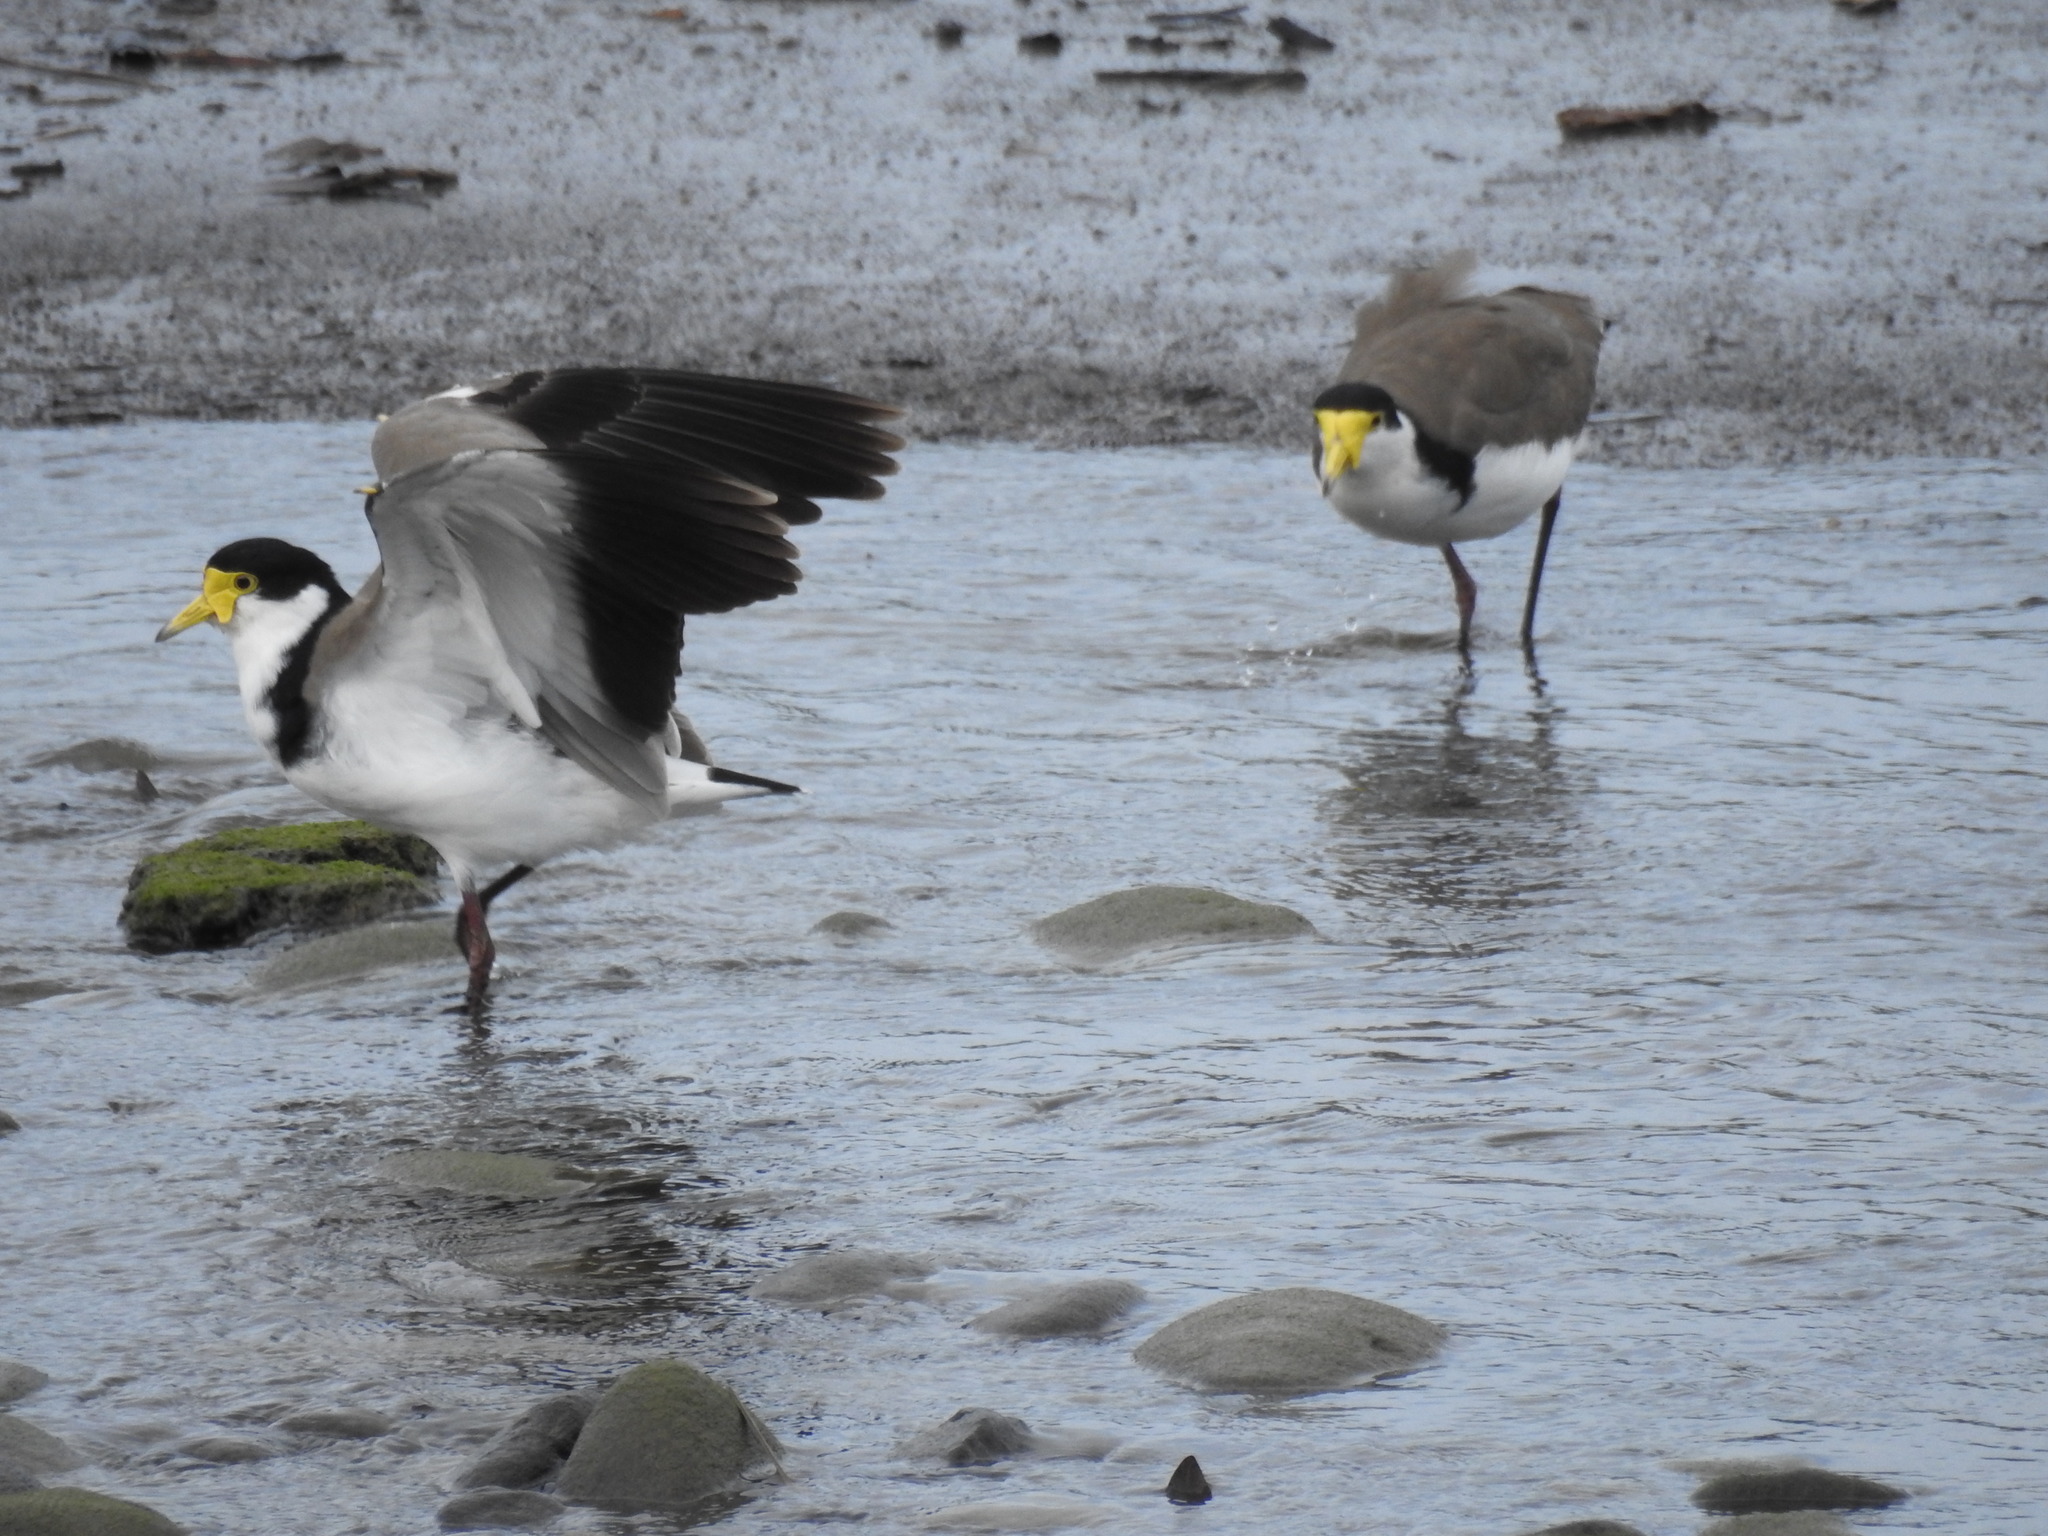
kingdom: Animalia
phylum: Chordata
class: Aves
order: Charadriiformes
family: Charadriidae
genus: Vanellus
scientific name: Vanellus miles
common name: Masked lapwing
